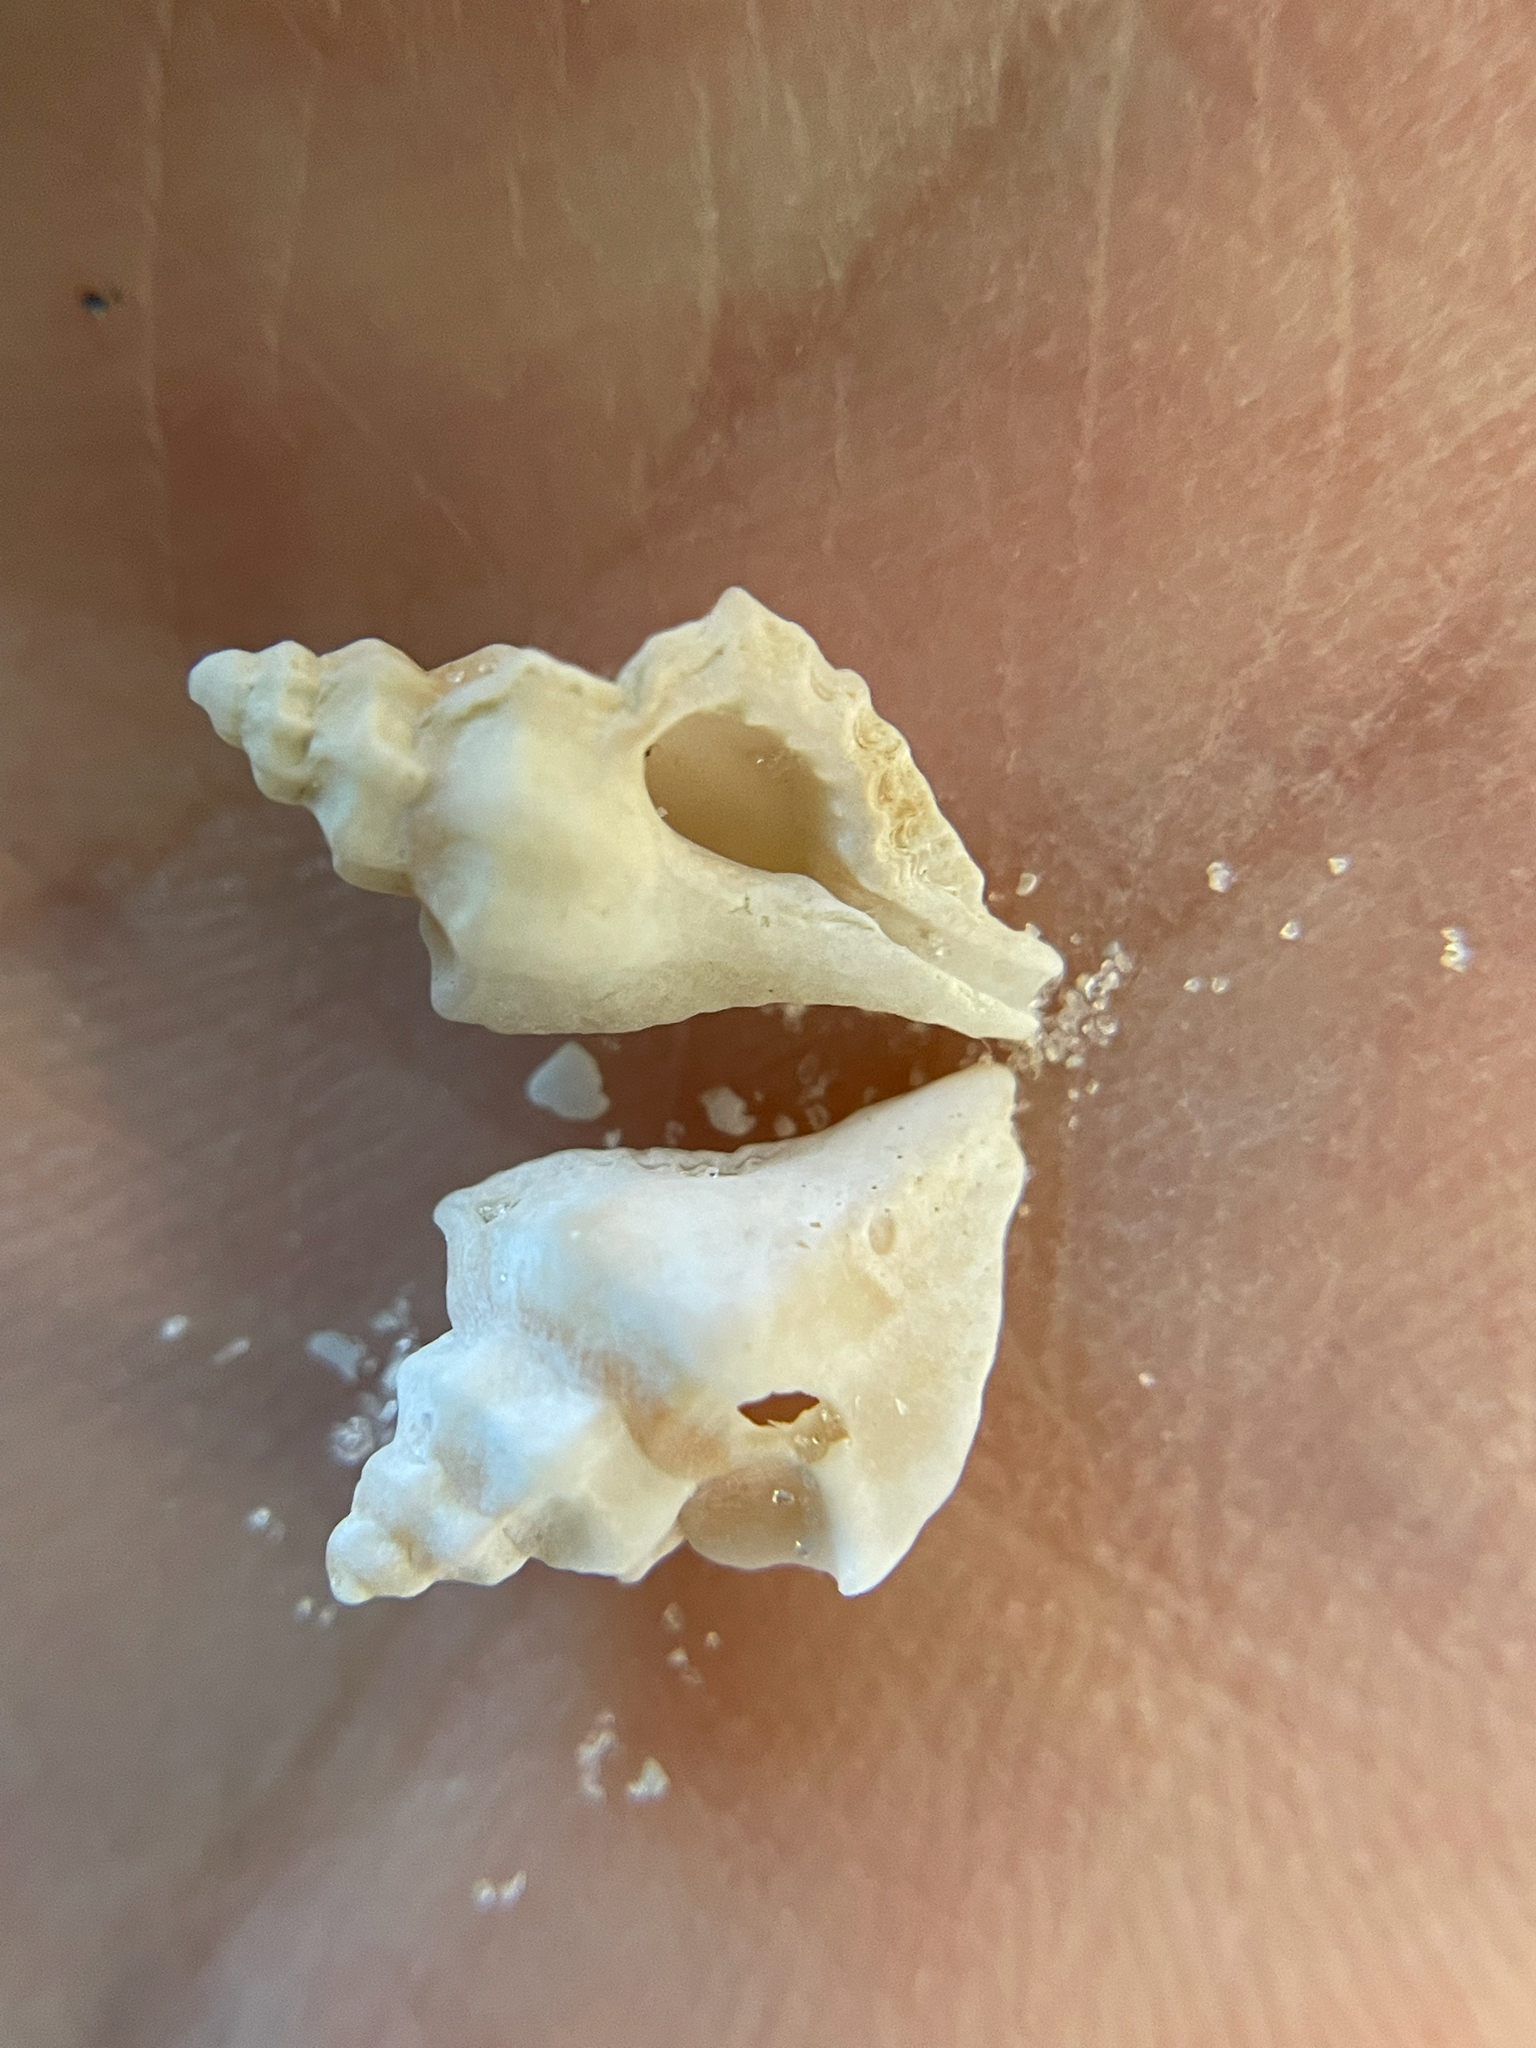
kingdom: Animalia
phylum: Mollusca
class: Gastropoda
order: Neogastropoda
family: Muricidae
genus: Eupleura
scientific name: Eupleura sulcidentata
